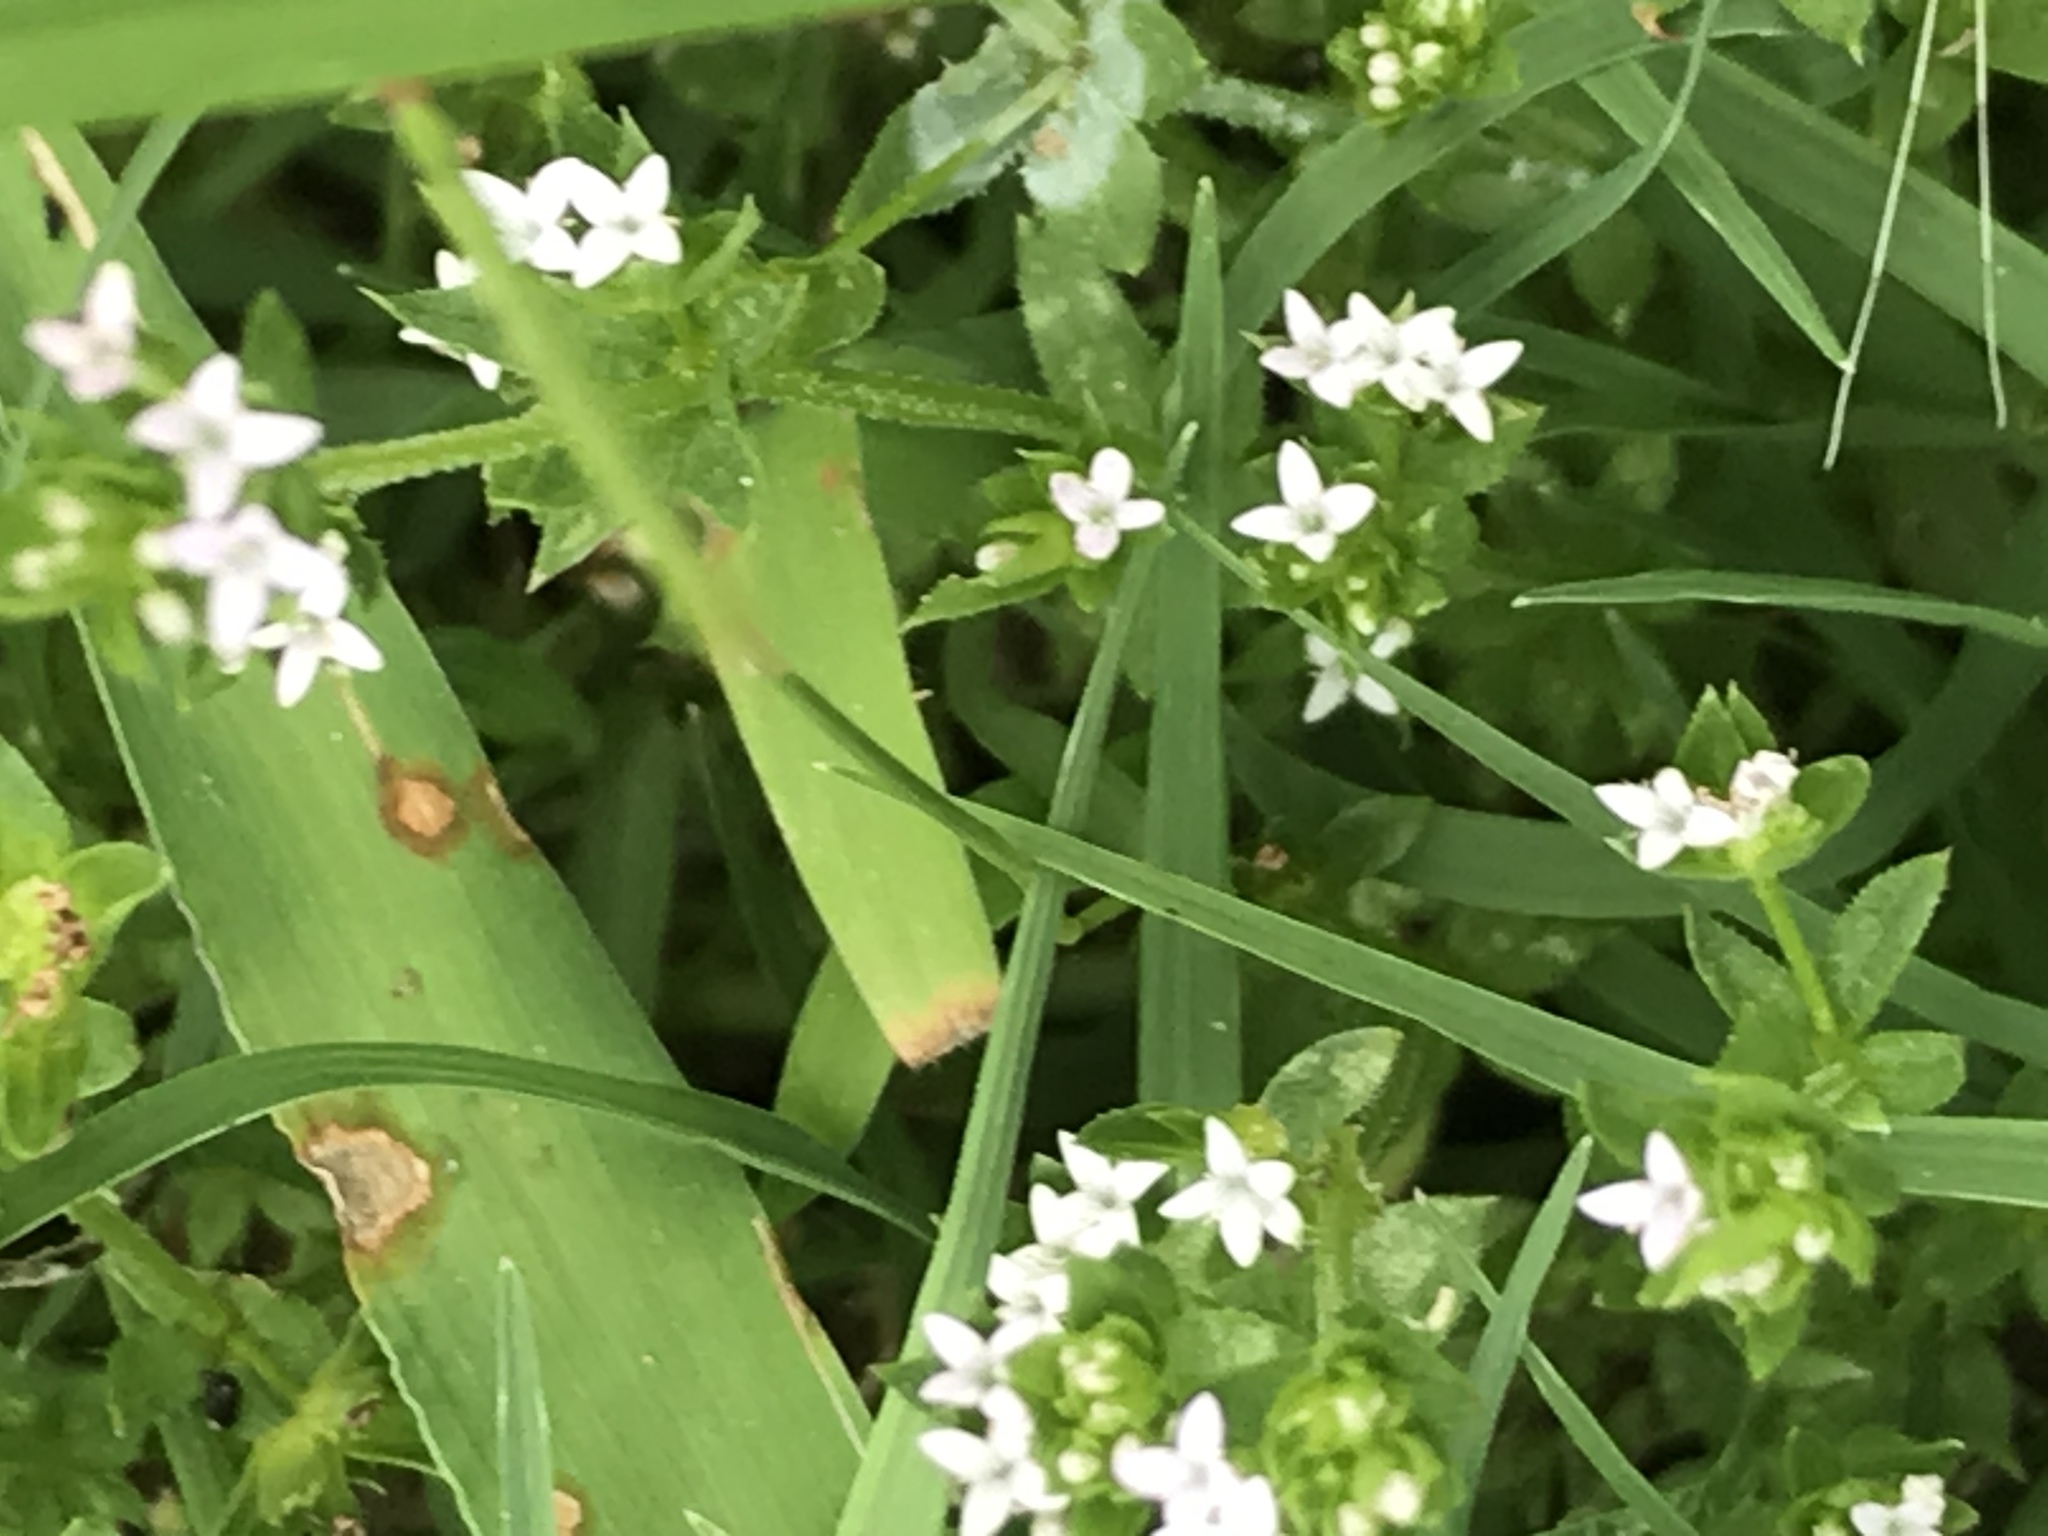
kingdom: Plantae
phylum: Tracheophyta
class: Magnoliopsida
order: Gentianales
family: Rubiaceae
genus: Sherardia
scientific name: Sherardia arvensis
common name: Field madder
